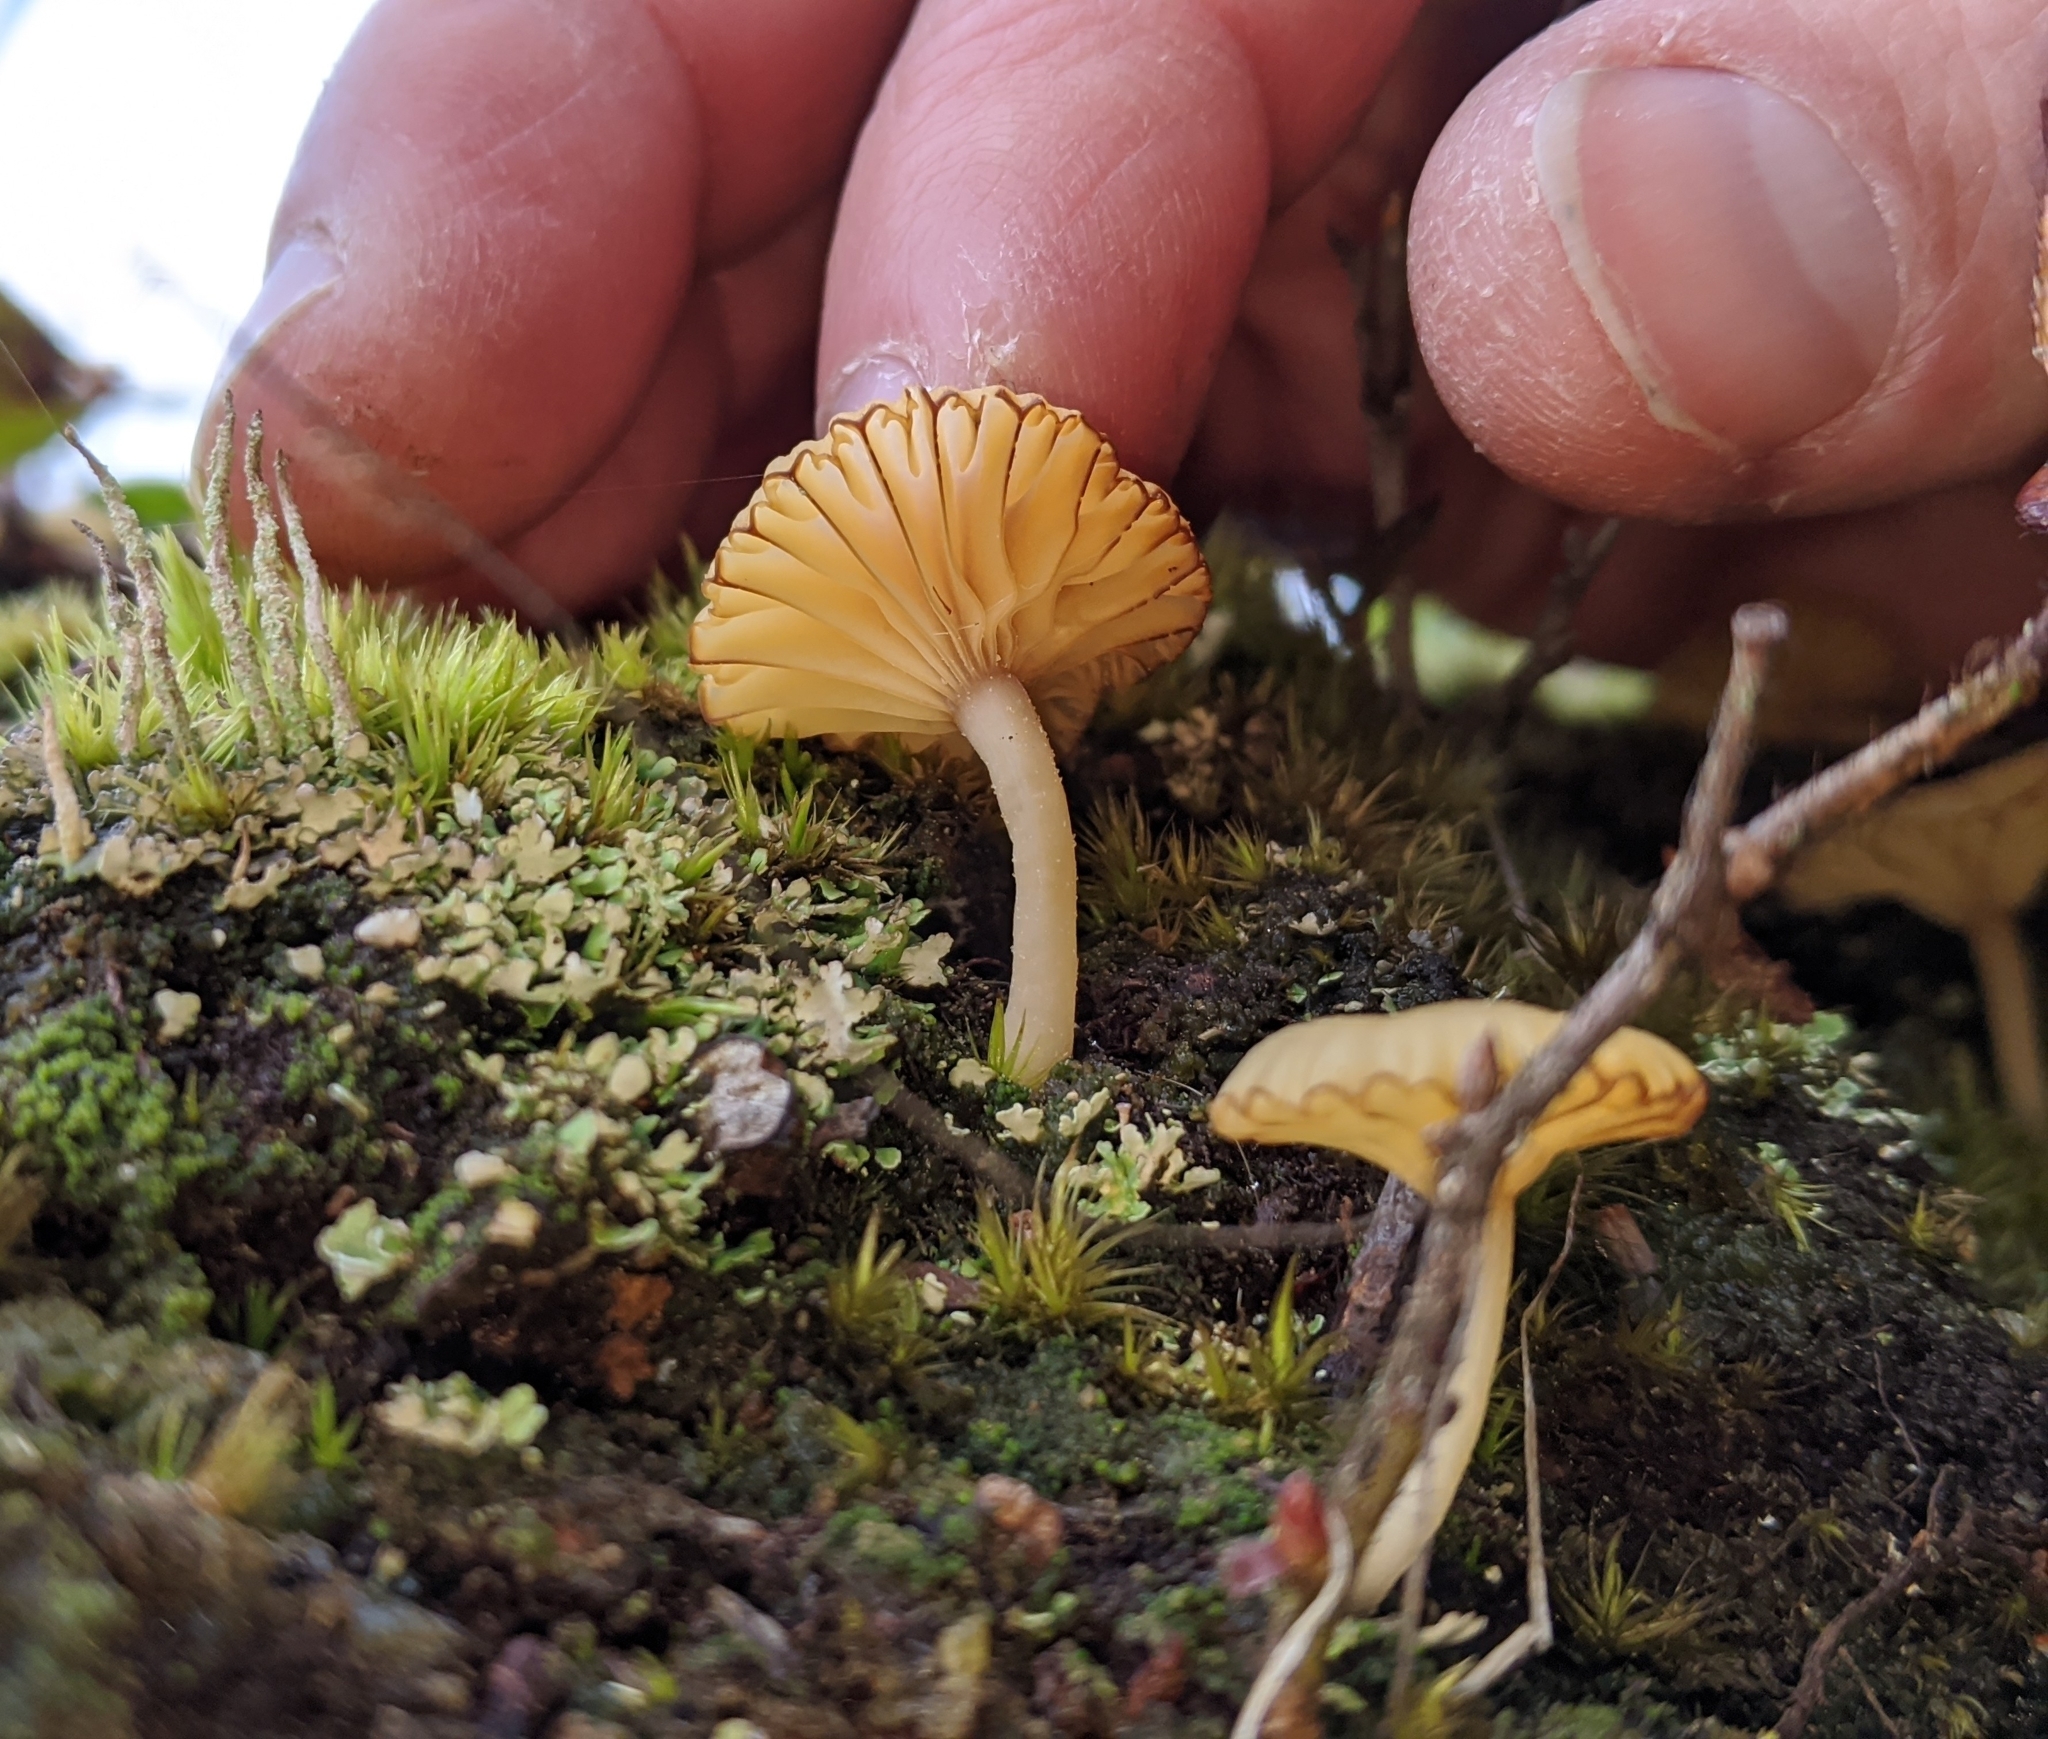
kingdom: Fungi
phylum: Basidiomycota
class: Agaricomycetes
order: Agaricales
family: Hygrophoraceae
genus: Lichenomphalia
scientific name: Lichenomphalia
